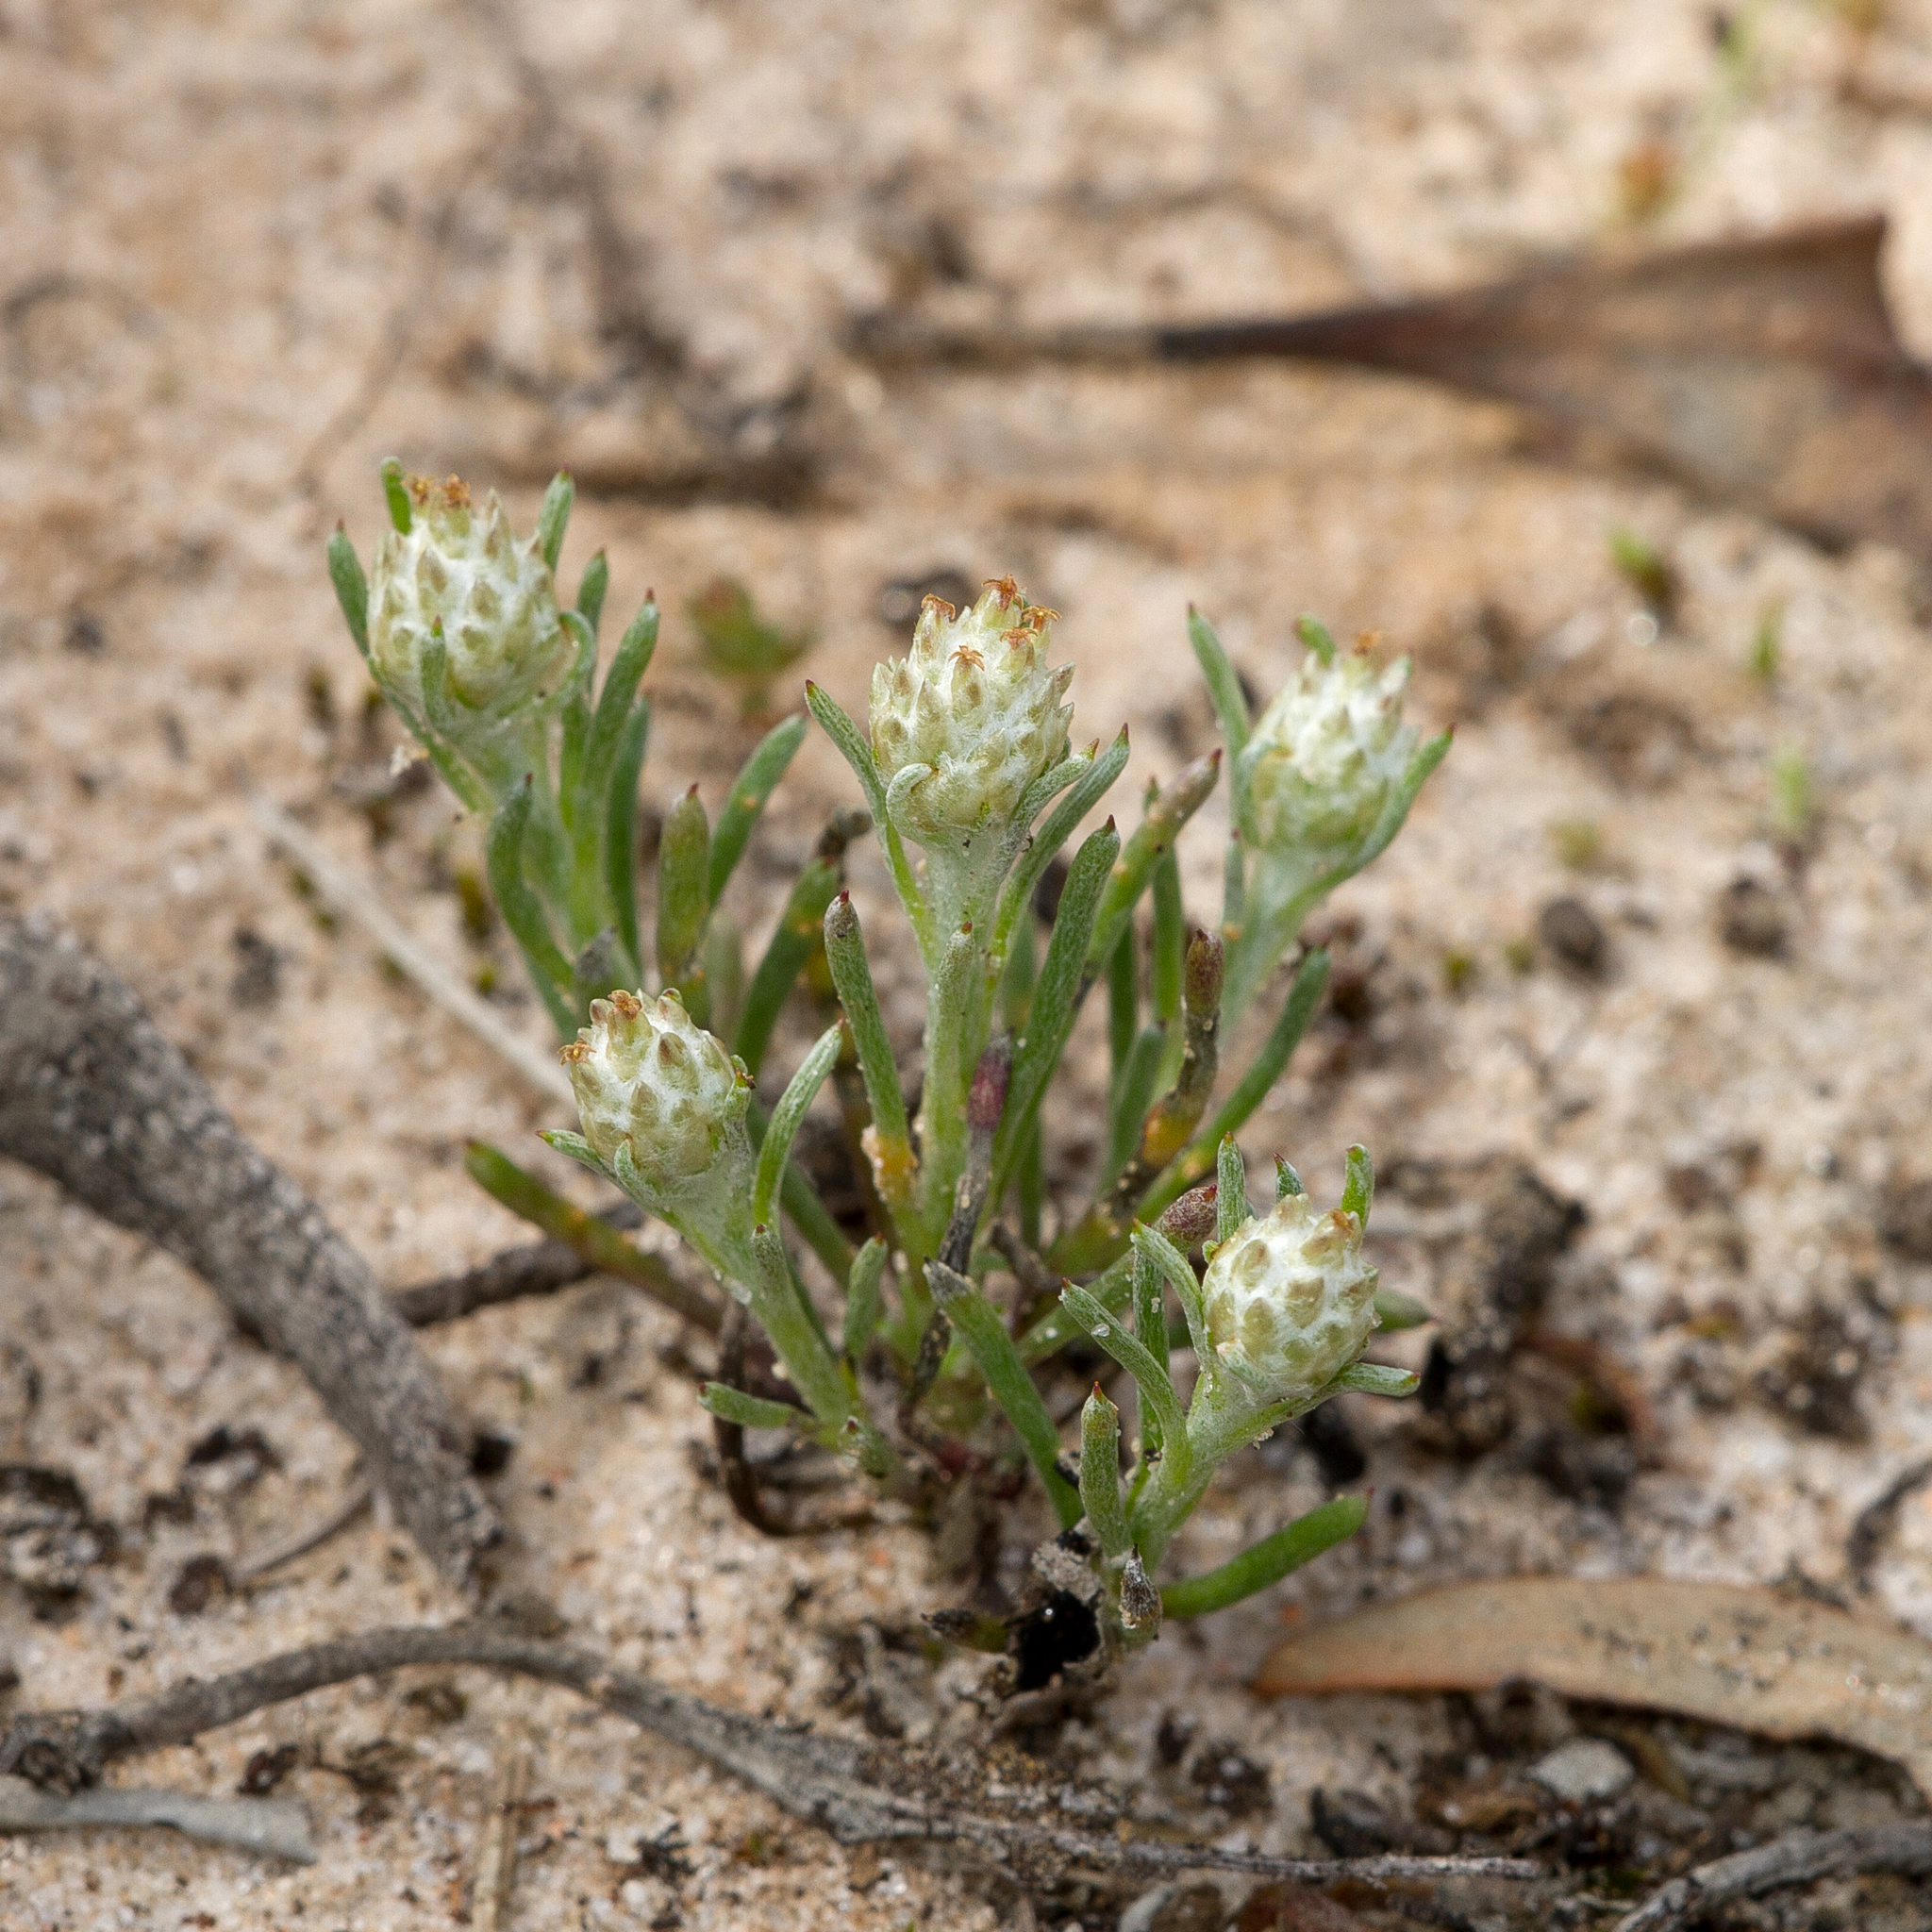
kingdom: Plantae
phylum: Tracheophyta
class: Magnoliopsida
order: Asterales
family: Asteraceae
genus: Blennospora
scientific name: Blennospora drummondii
